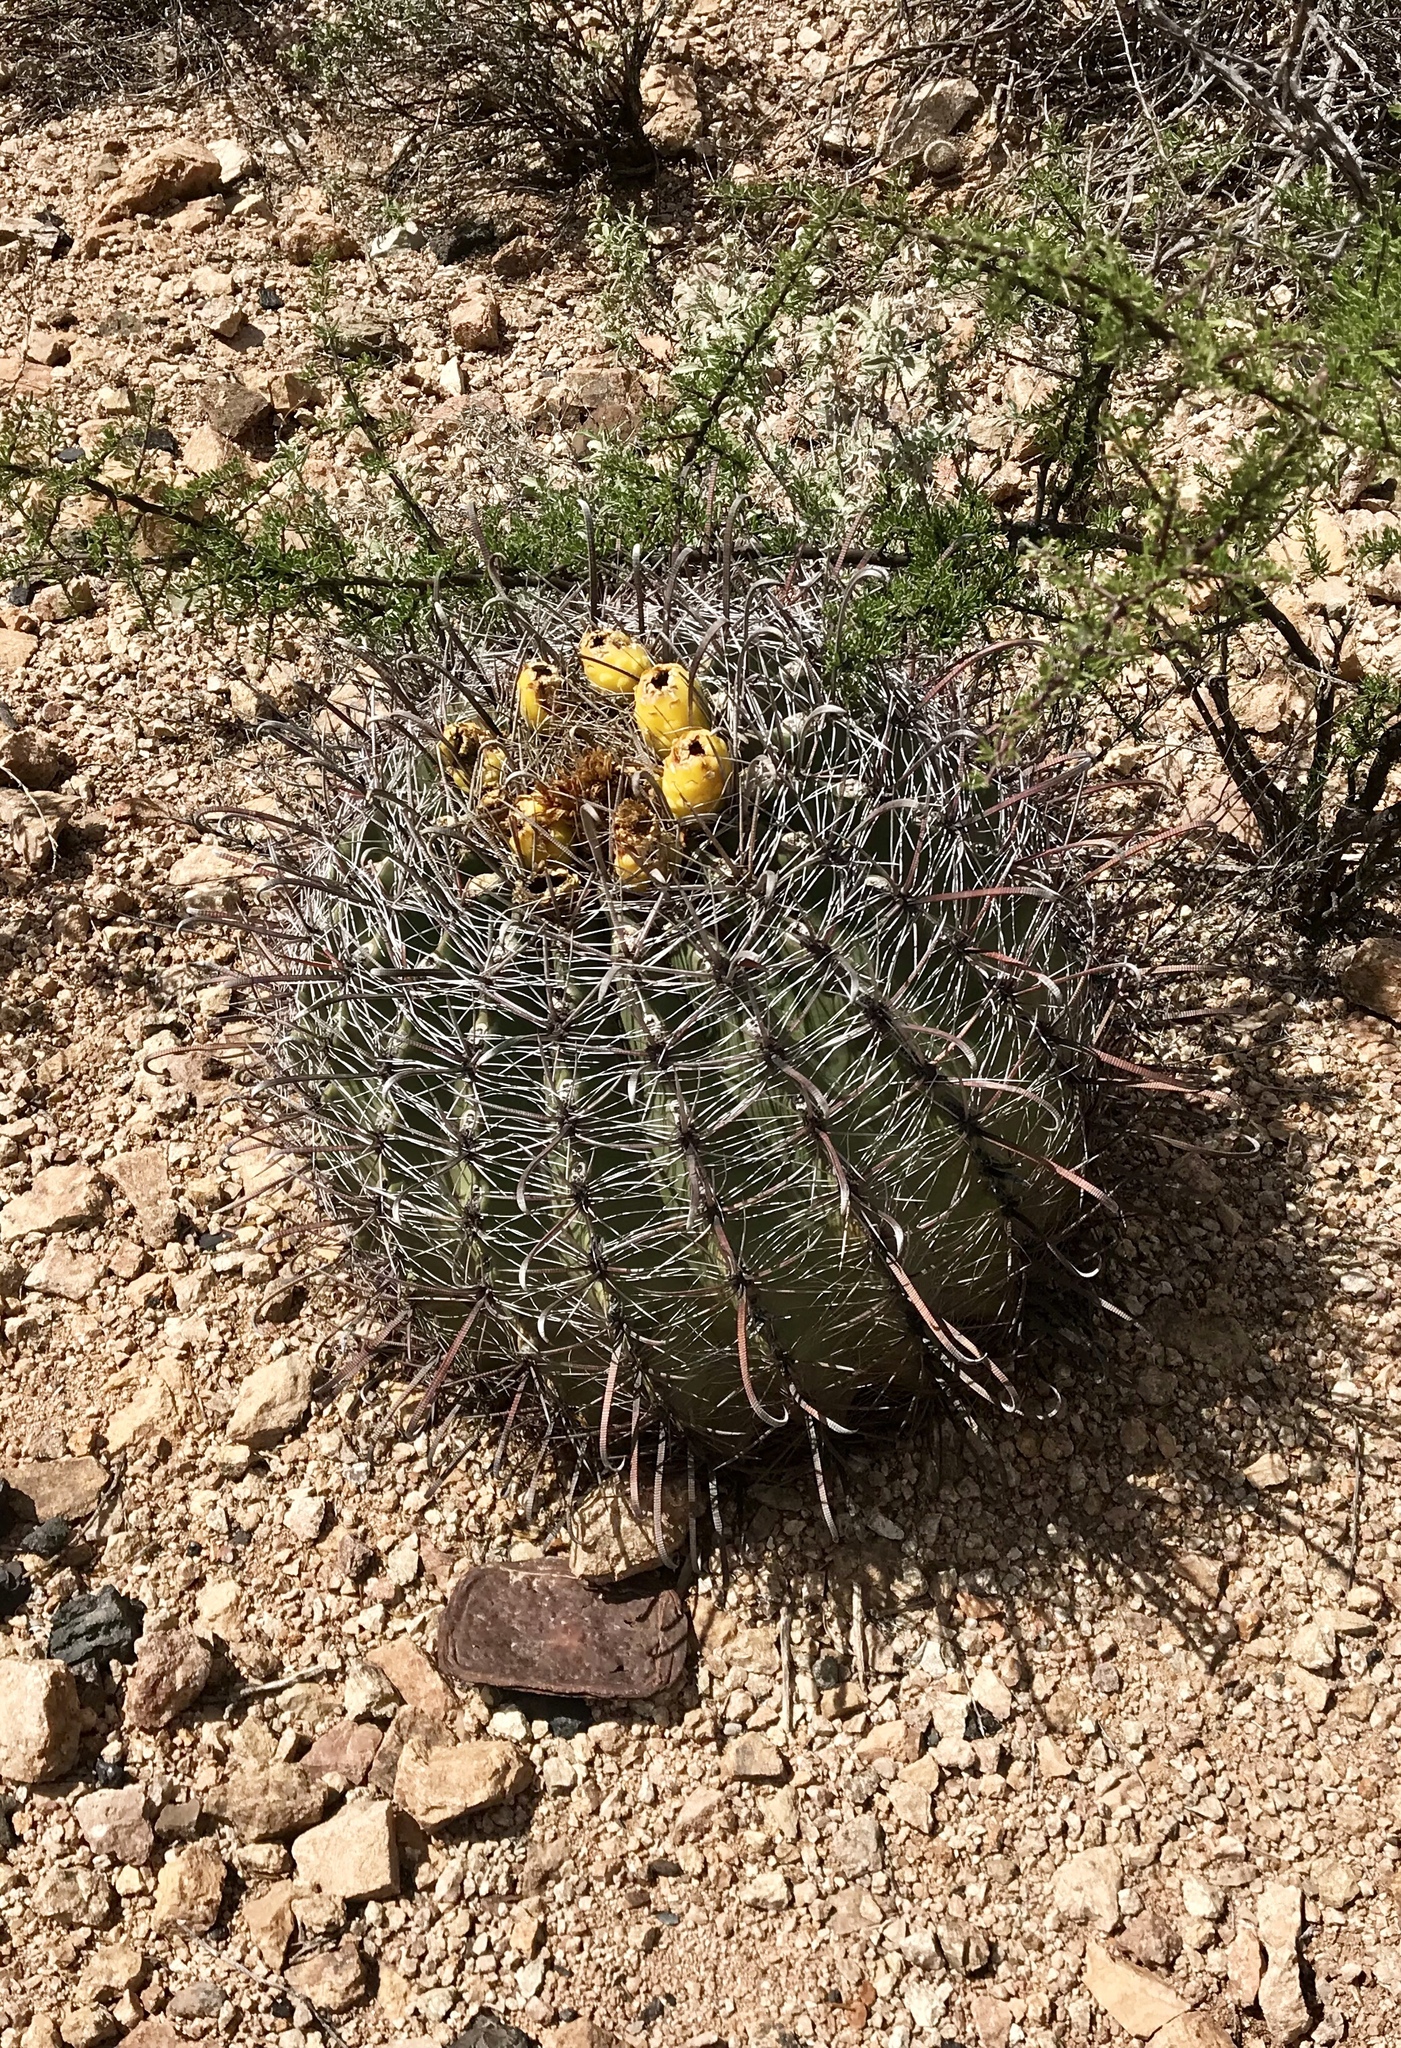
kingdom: Plantae
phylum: Tracheophyta
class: Magnoliopsida
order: Caryophyllales
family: Cactaceae
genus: Ferocactus
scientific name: Ferocactus wislizeni
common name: Candy barrel cactus
